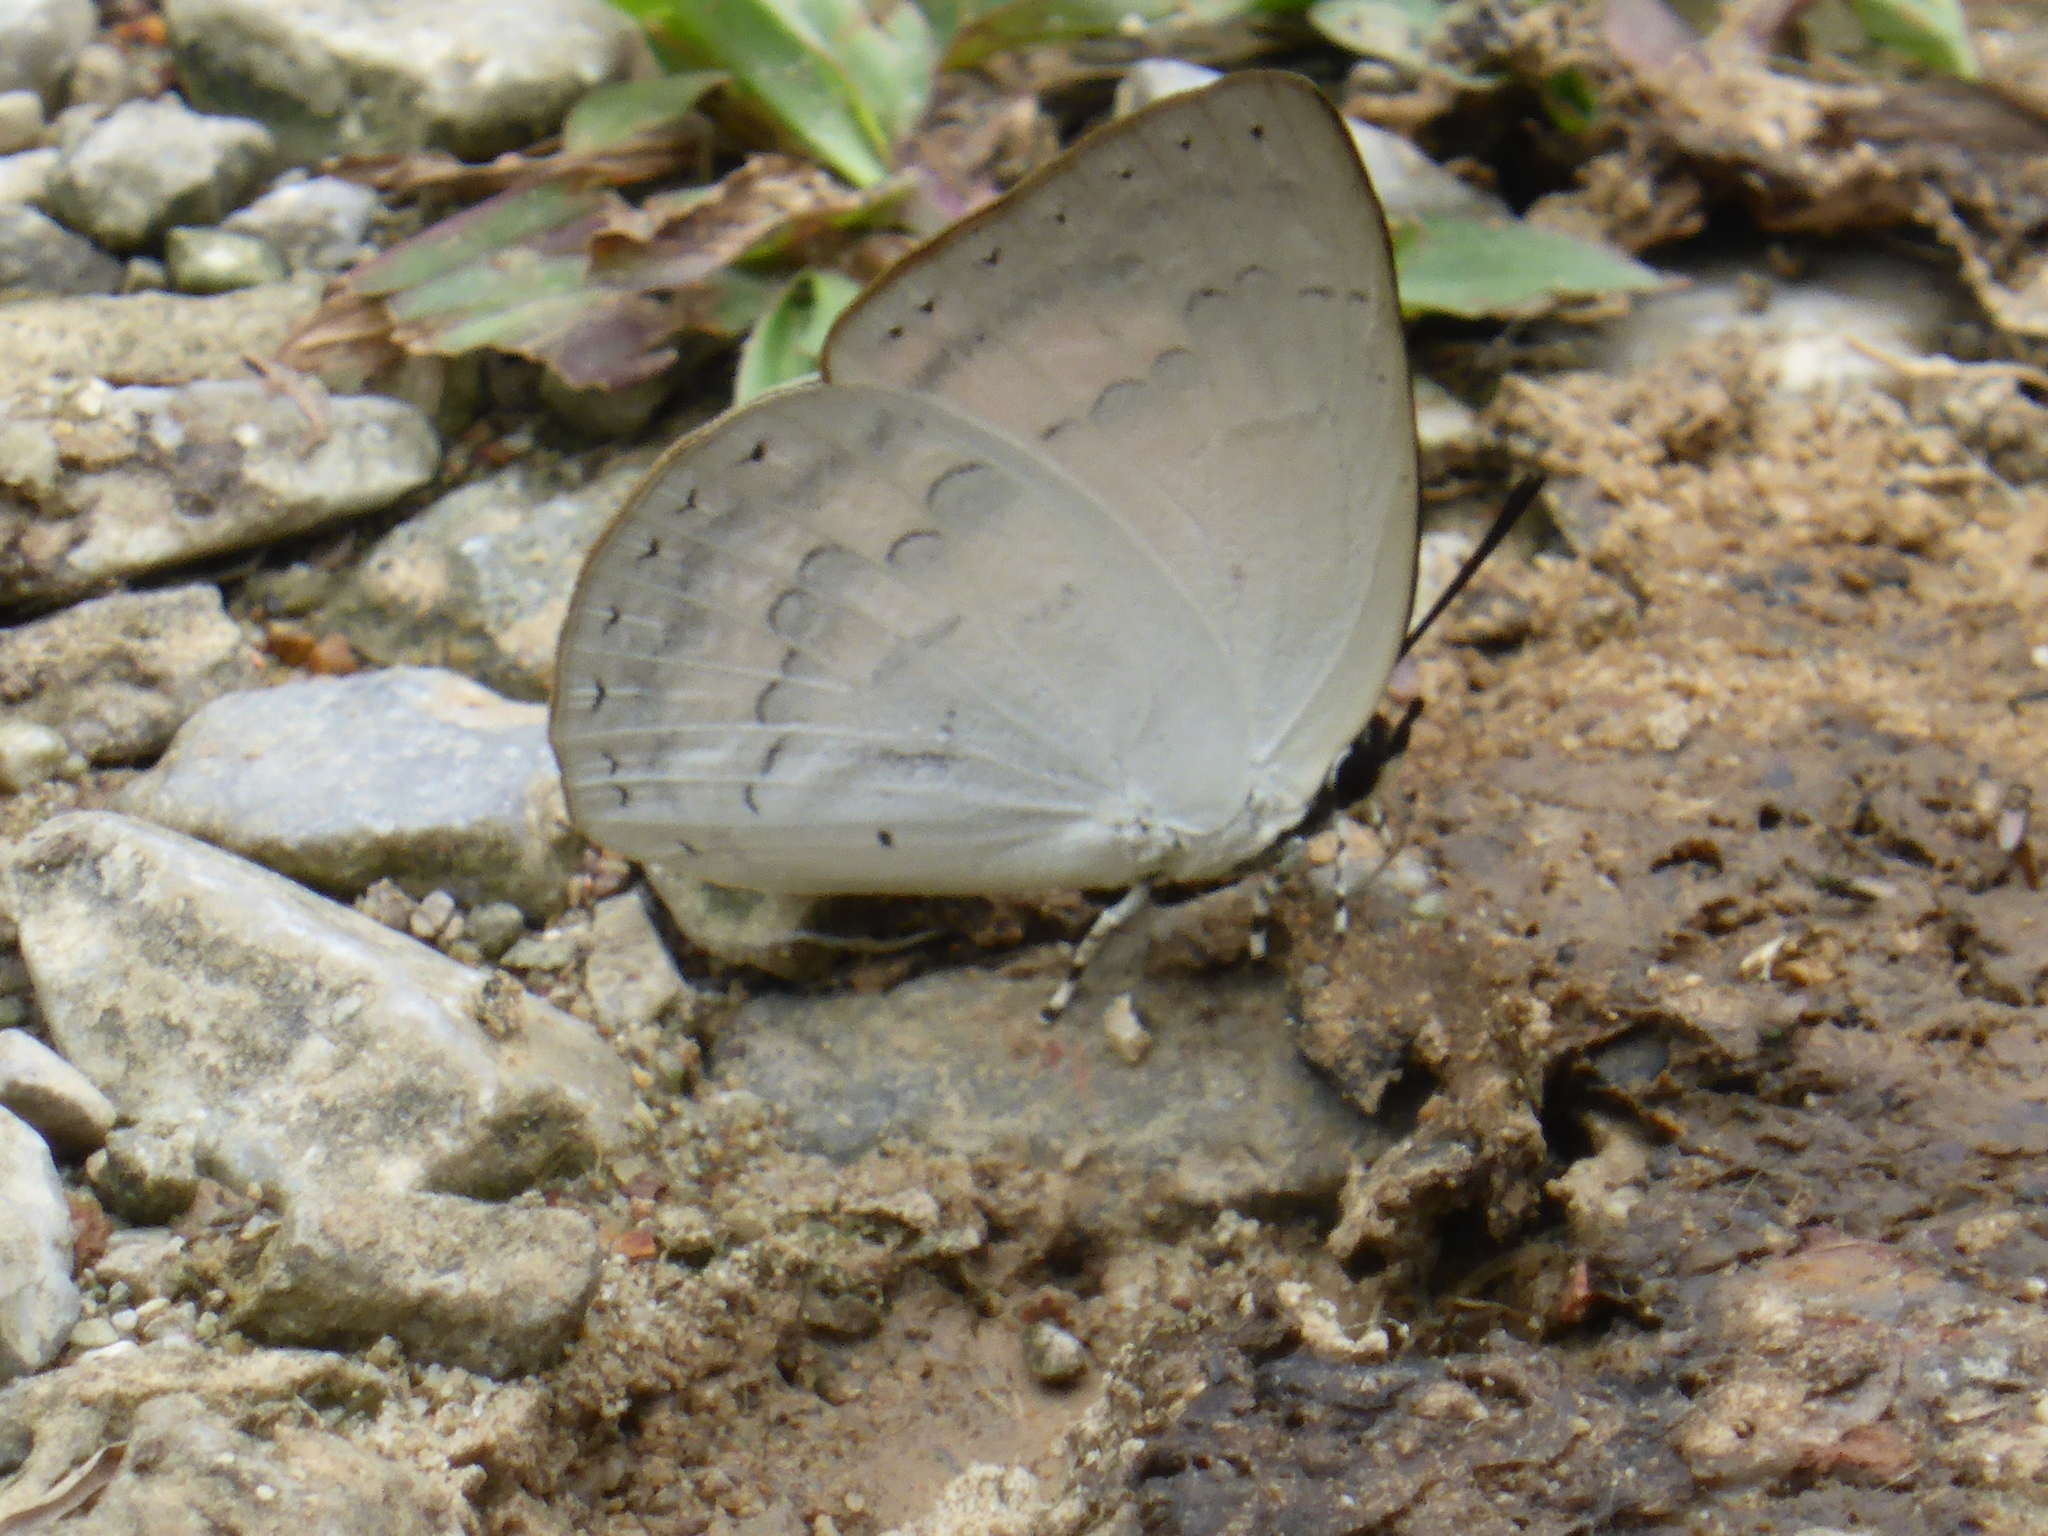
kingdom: Animalia
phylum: Arthropoda
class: Insecta
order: Lepidoptera
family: Lycaenidae
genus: Curetis
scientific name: Curetis tagalica
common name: Southern sunbeam
